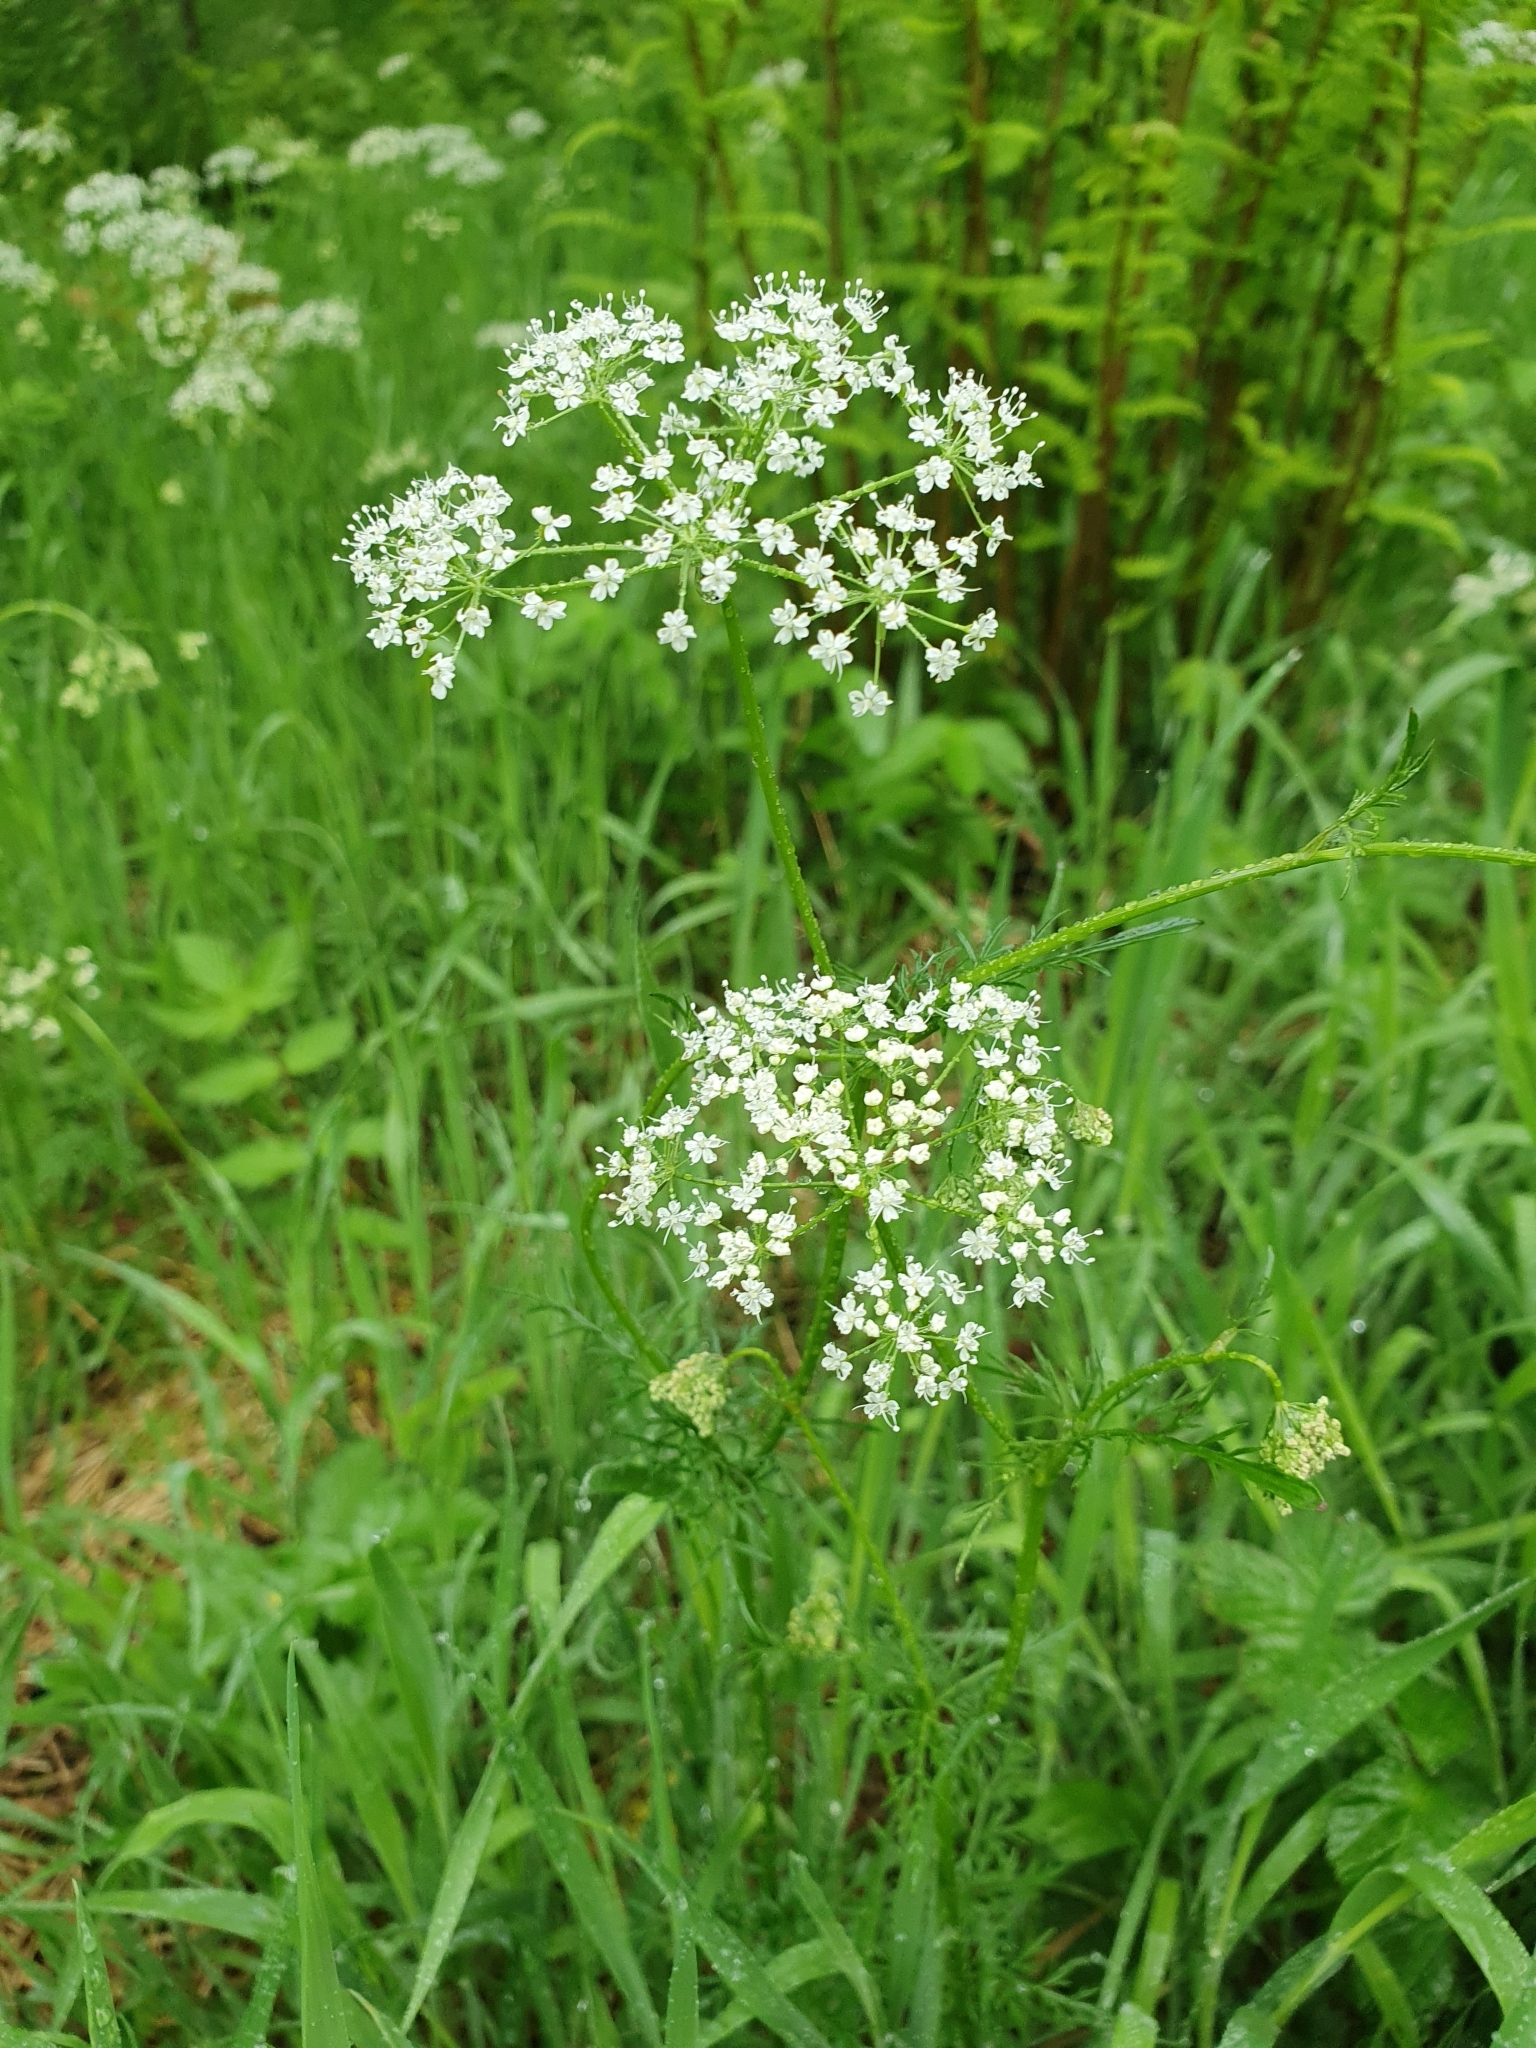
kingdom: Plantae
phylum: Tracheophyta
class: Magnoliopsida
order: Apiales
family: Apiaceae
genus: Conopodium
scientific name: Conopodium majus
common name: Pignut
